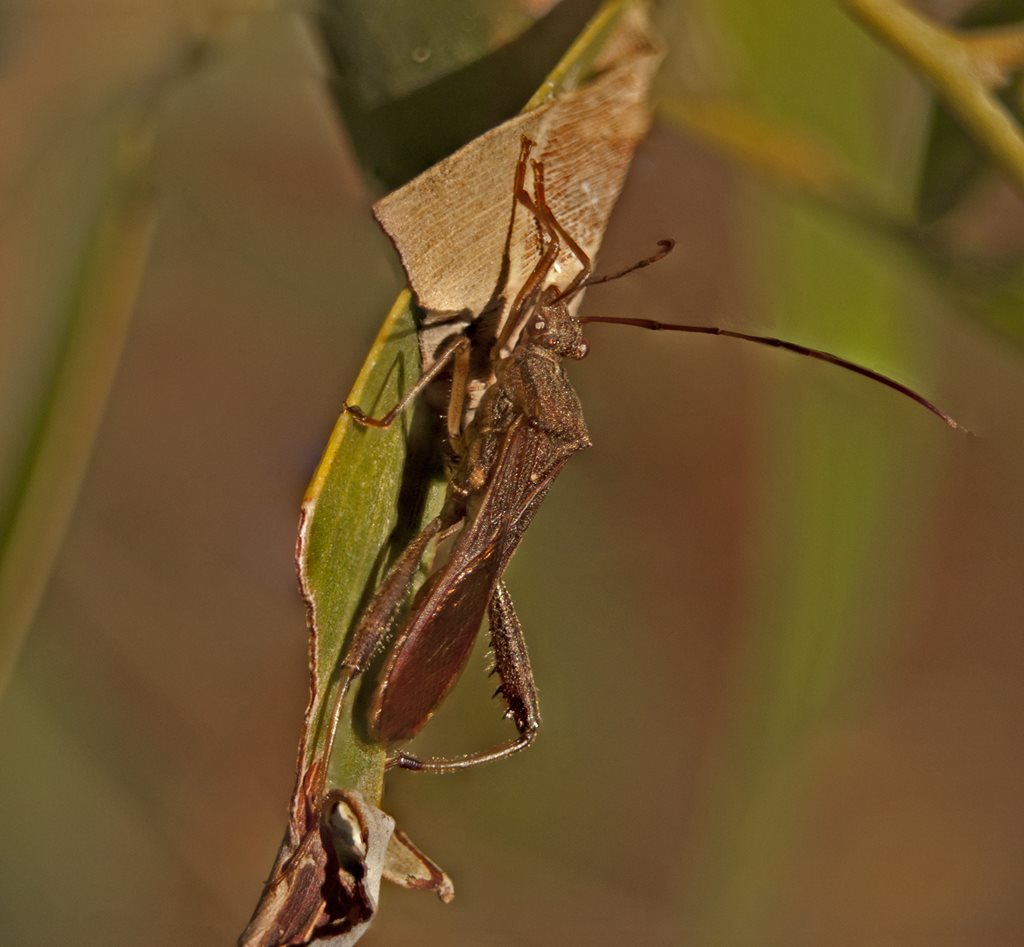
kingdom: Animalia
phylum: Arthropoda
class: Insecta
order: Hemiptera
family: Alydidae
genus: Riptortus
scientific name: Riptortus abdominalis
